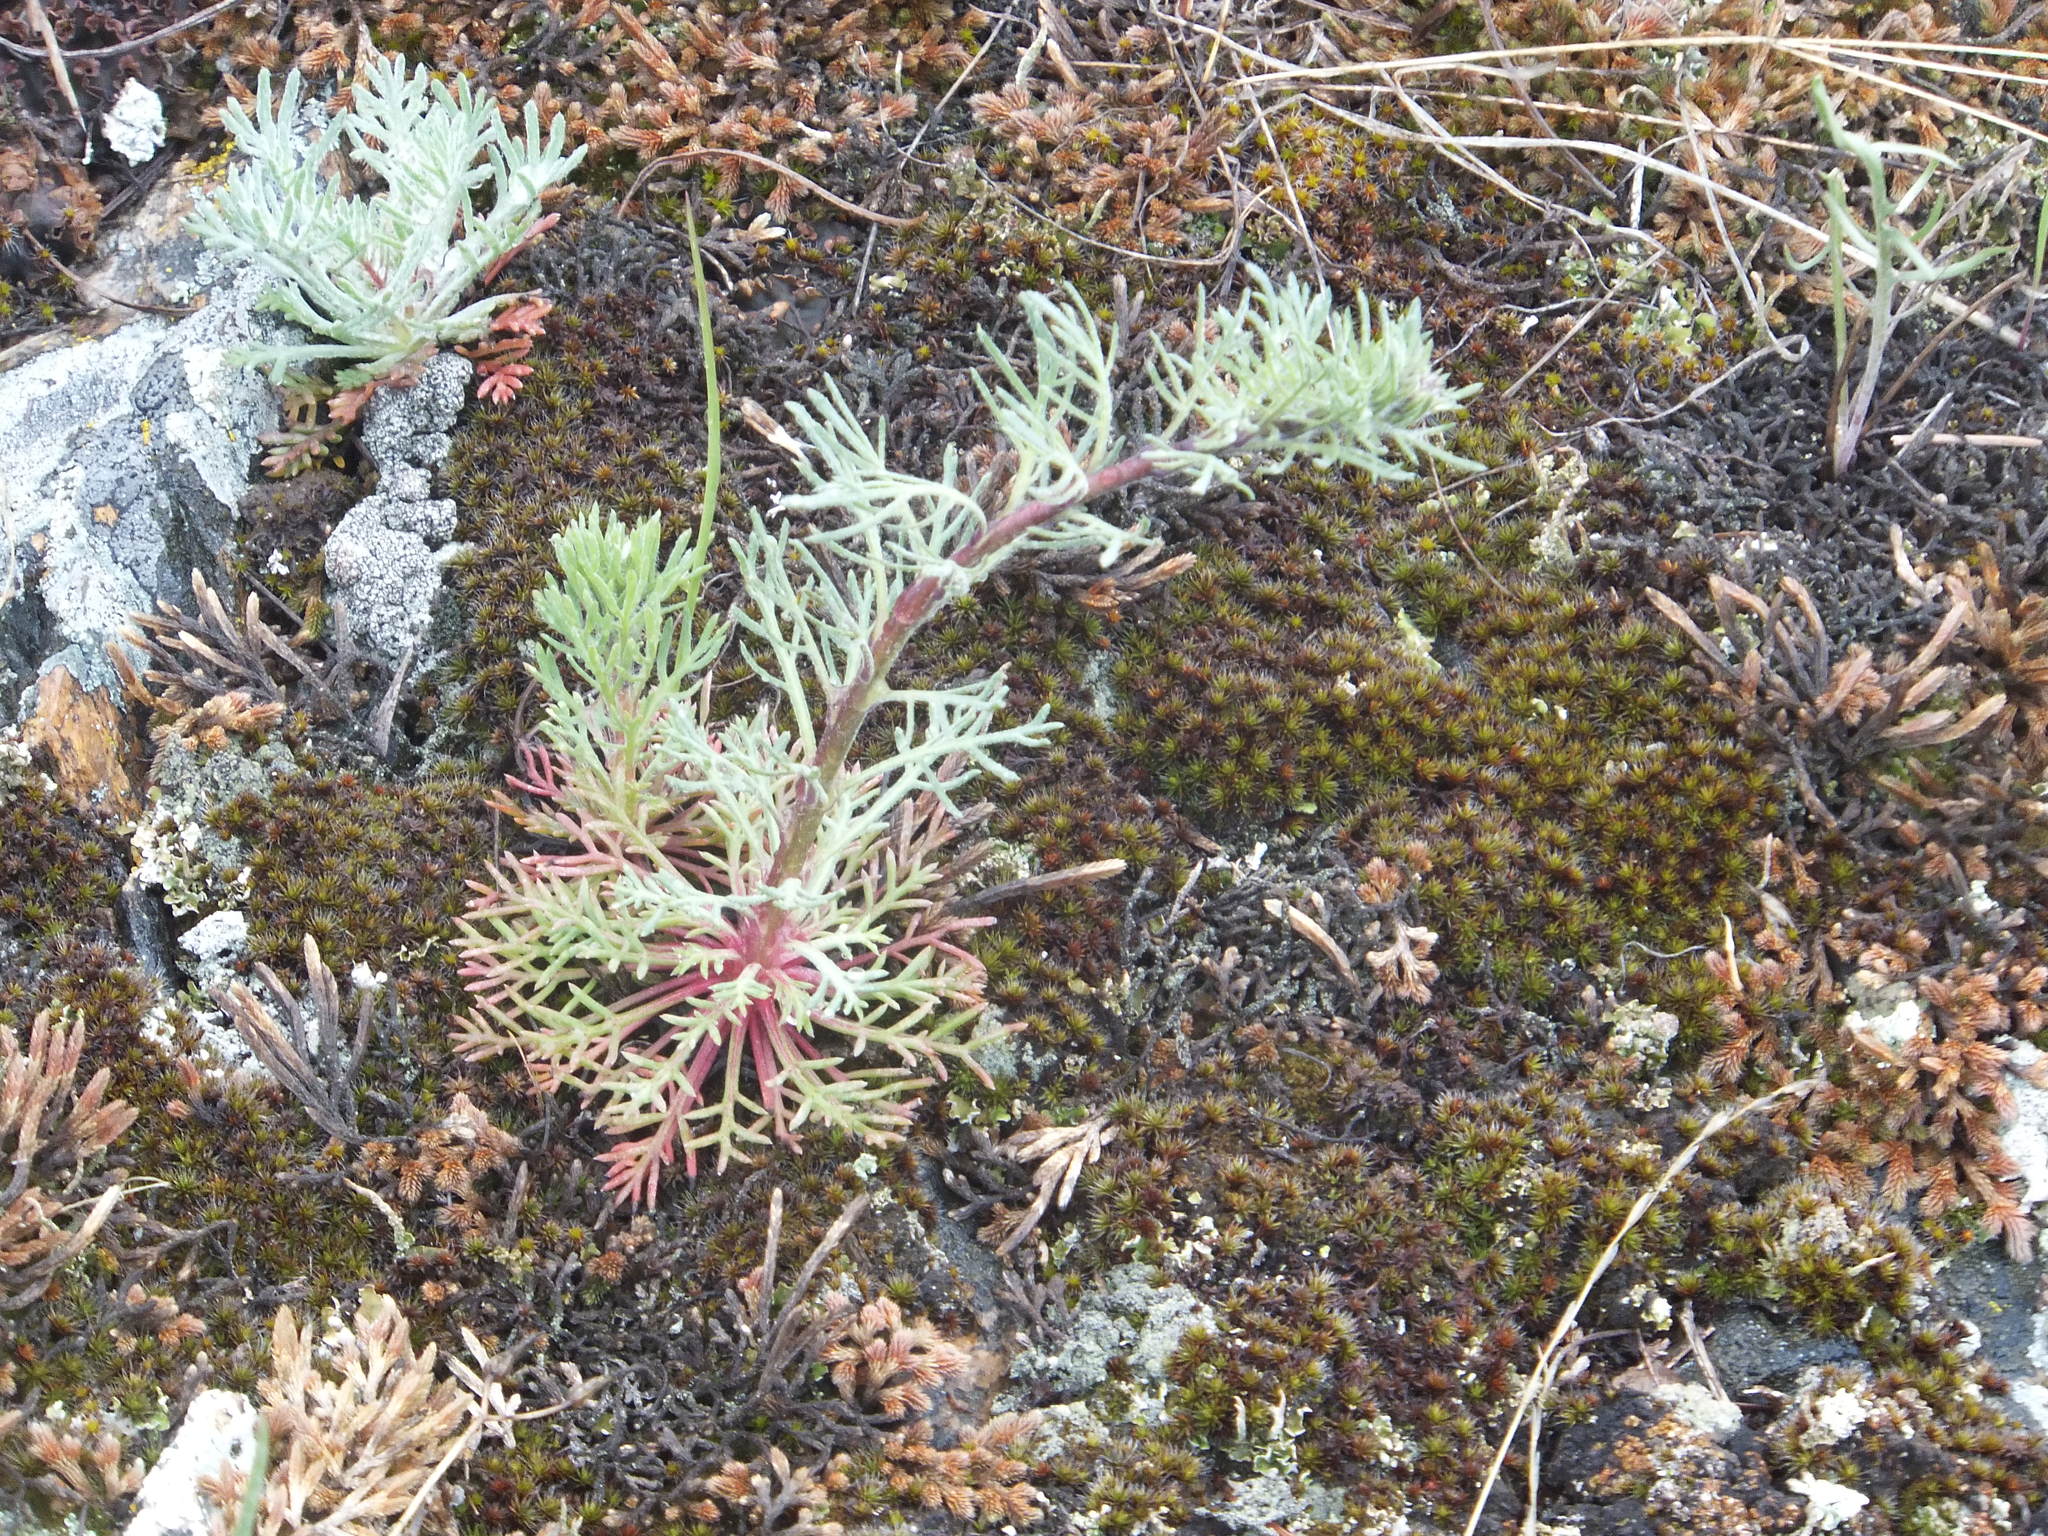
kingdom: Plantae
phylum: Tracheophyta
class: Magnoliopsida
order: Ericales
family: Polemoniaceae
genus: Ipomopsis
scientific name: Ipomopsis aggregata
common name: Scarlet gilia
